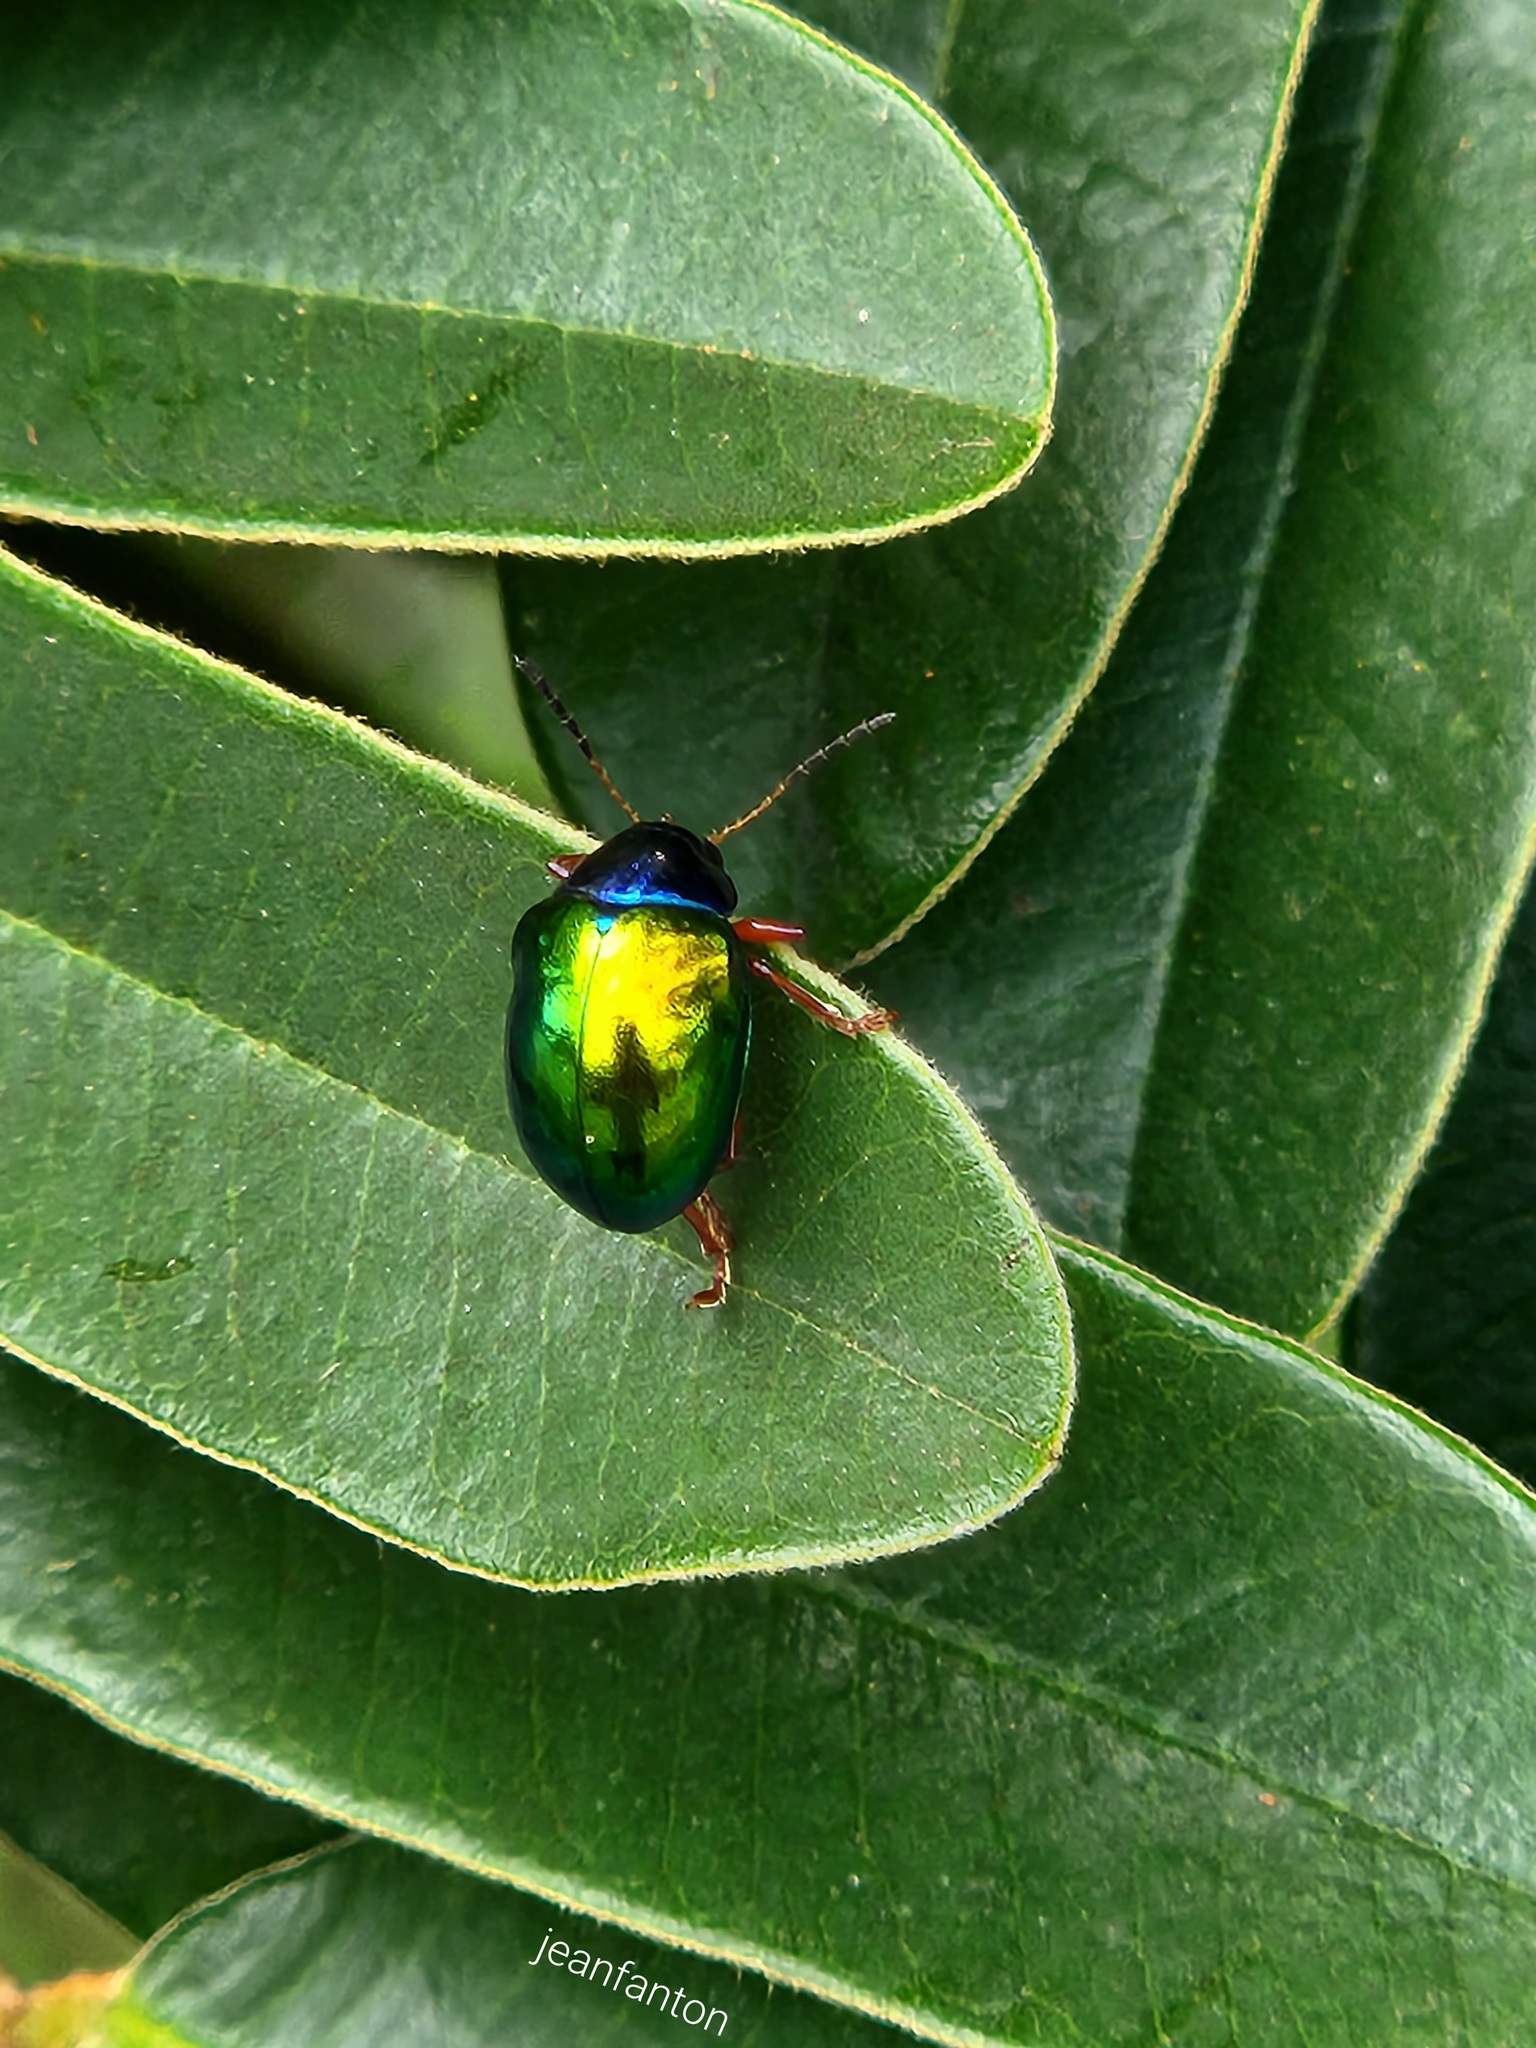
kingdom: Animalia
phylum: Arthropoda
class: Insecta
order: Coleoptera
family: Chrysomelidae
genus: Iphimeis
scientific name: Iphimeis
